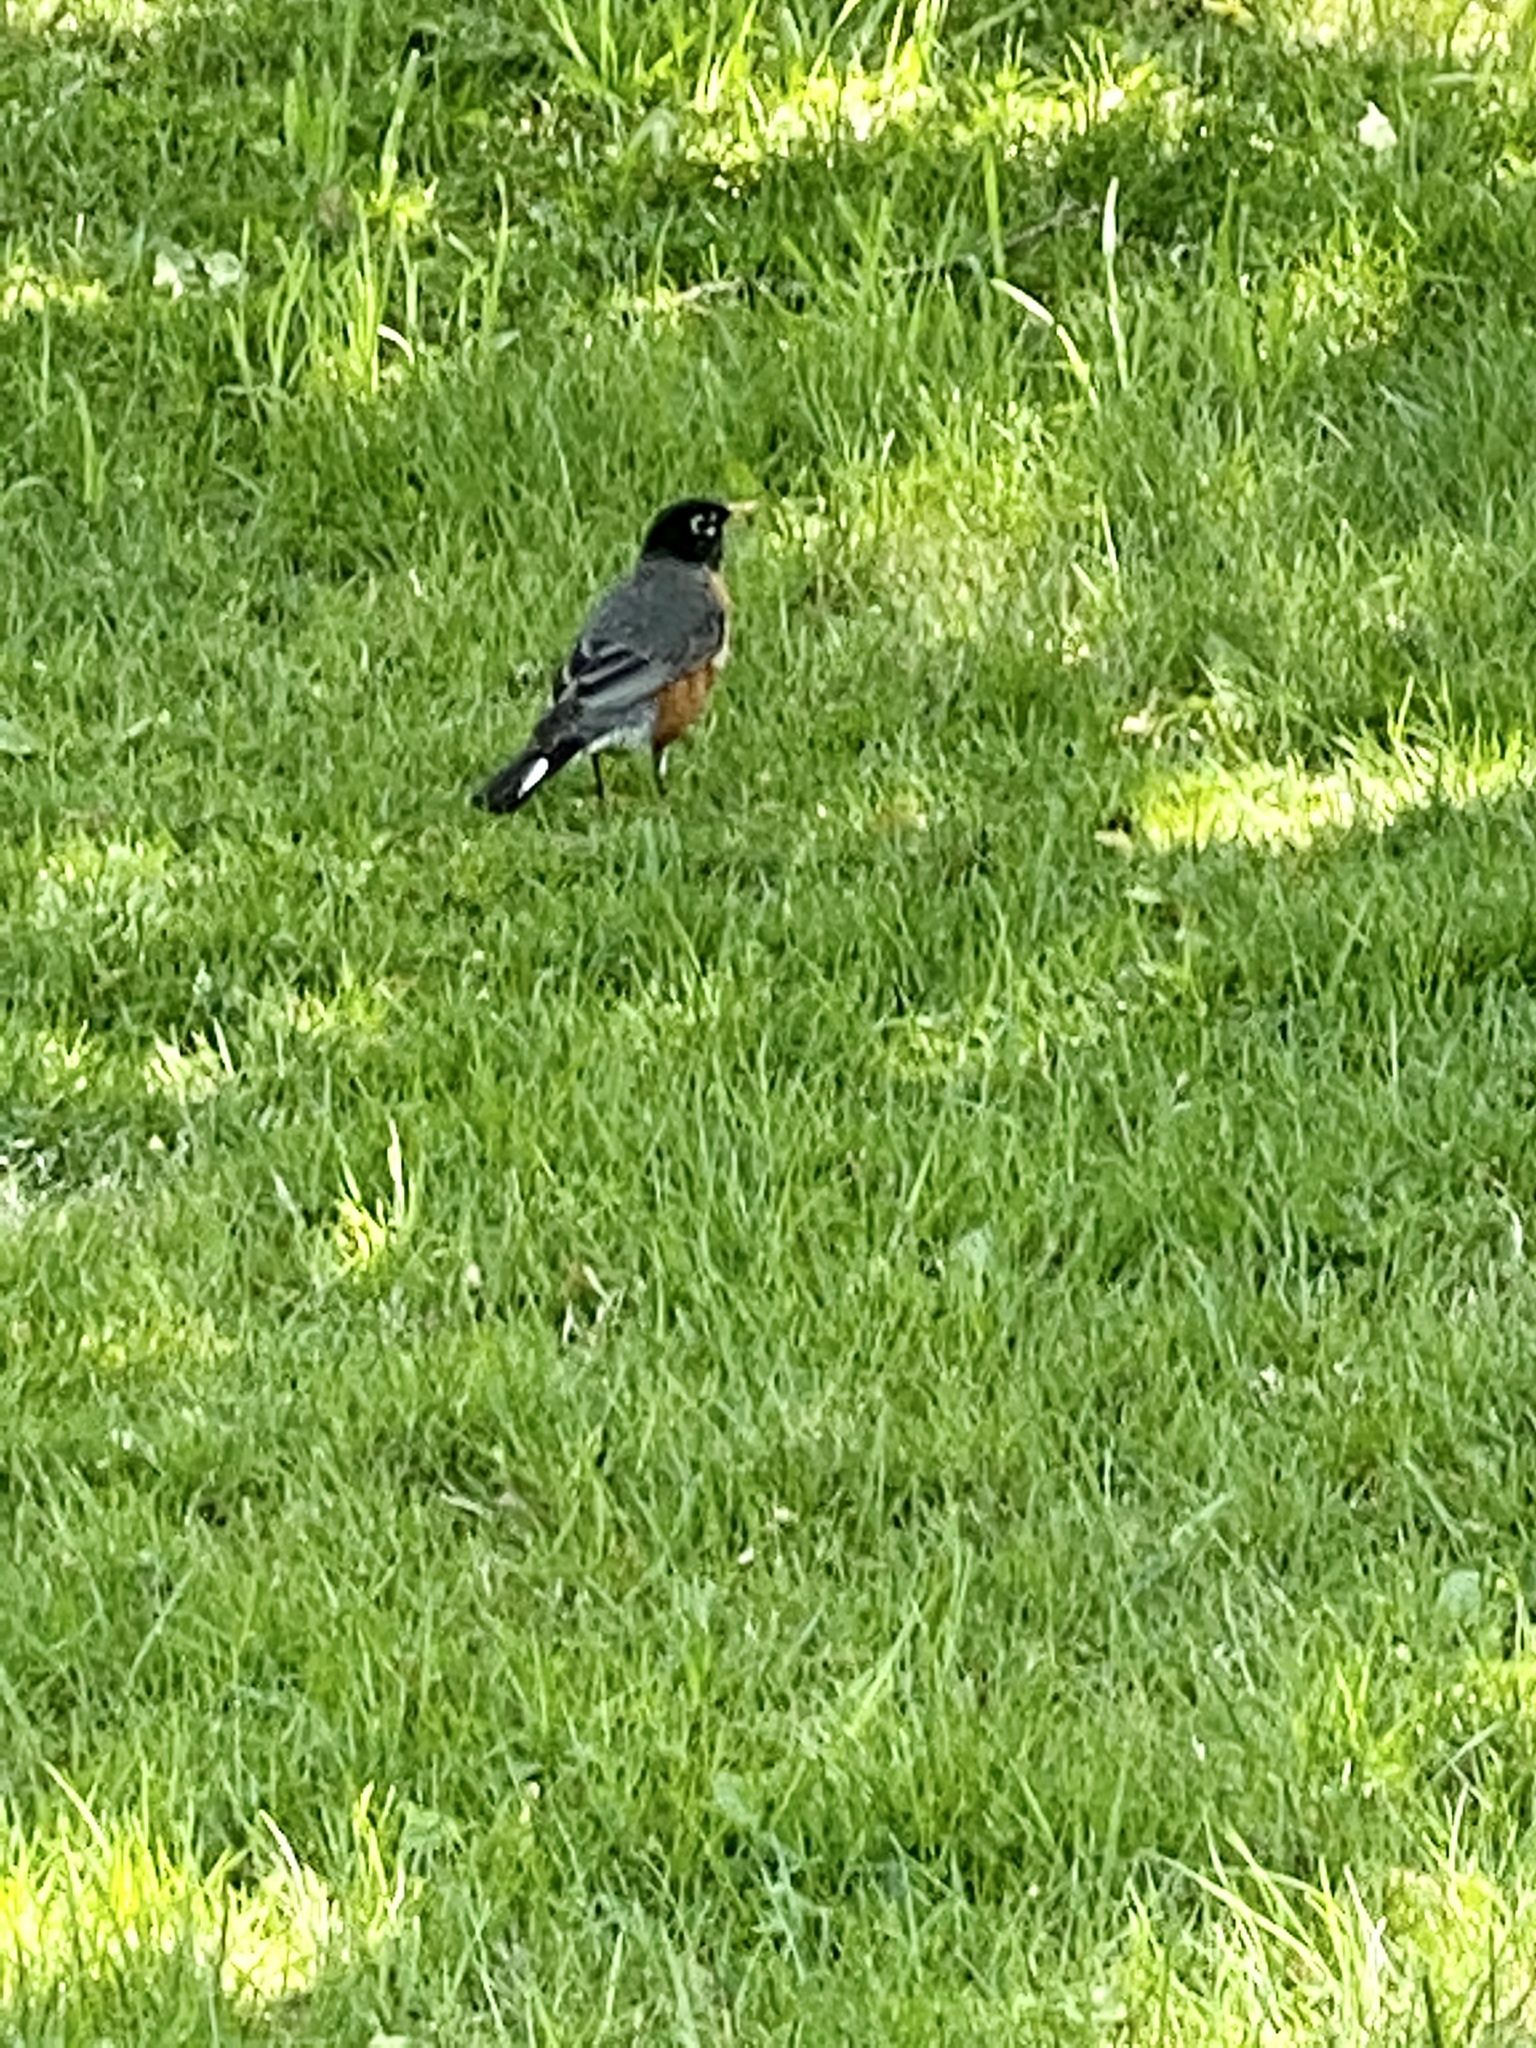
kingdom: Animalia
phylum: Chordata
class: Aves
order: Passeriformes
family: Turdidae
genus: Turdus
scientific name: Turdus migratorius
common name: American robin
